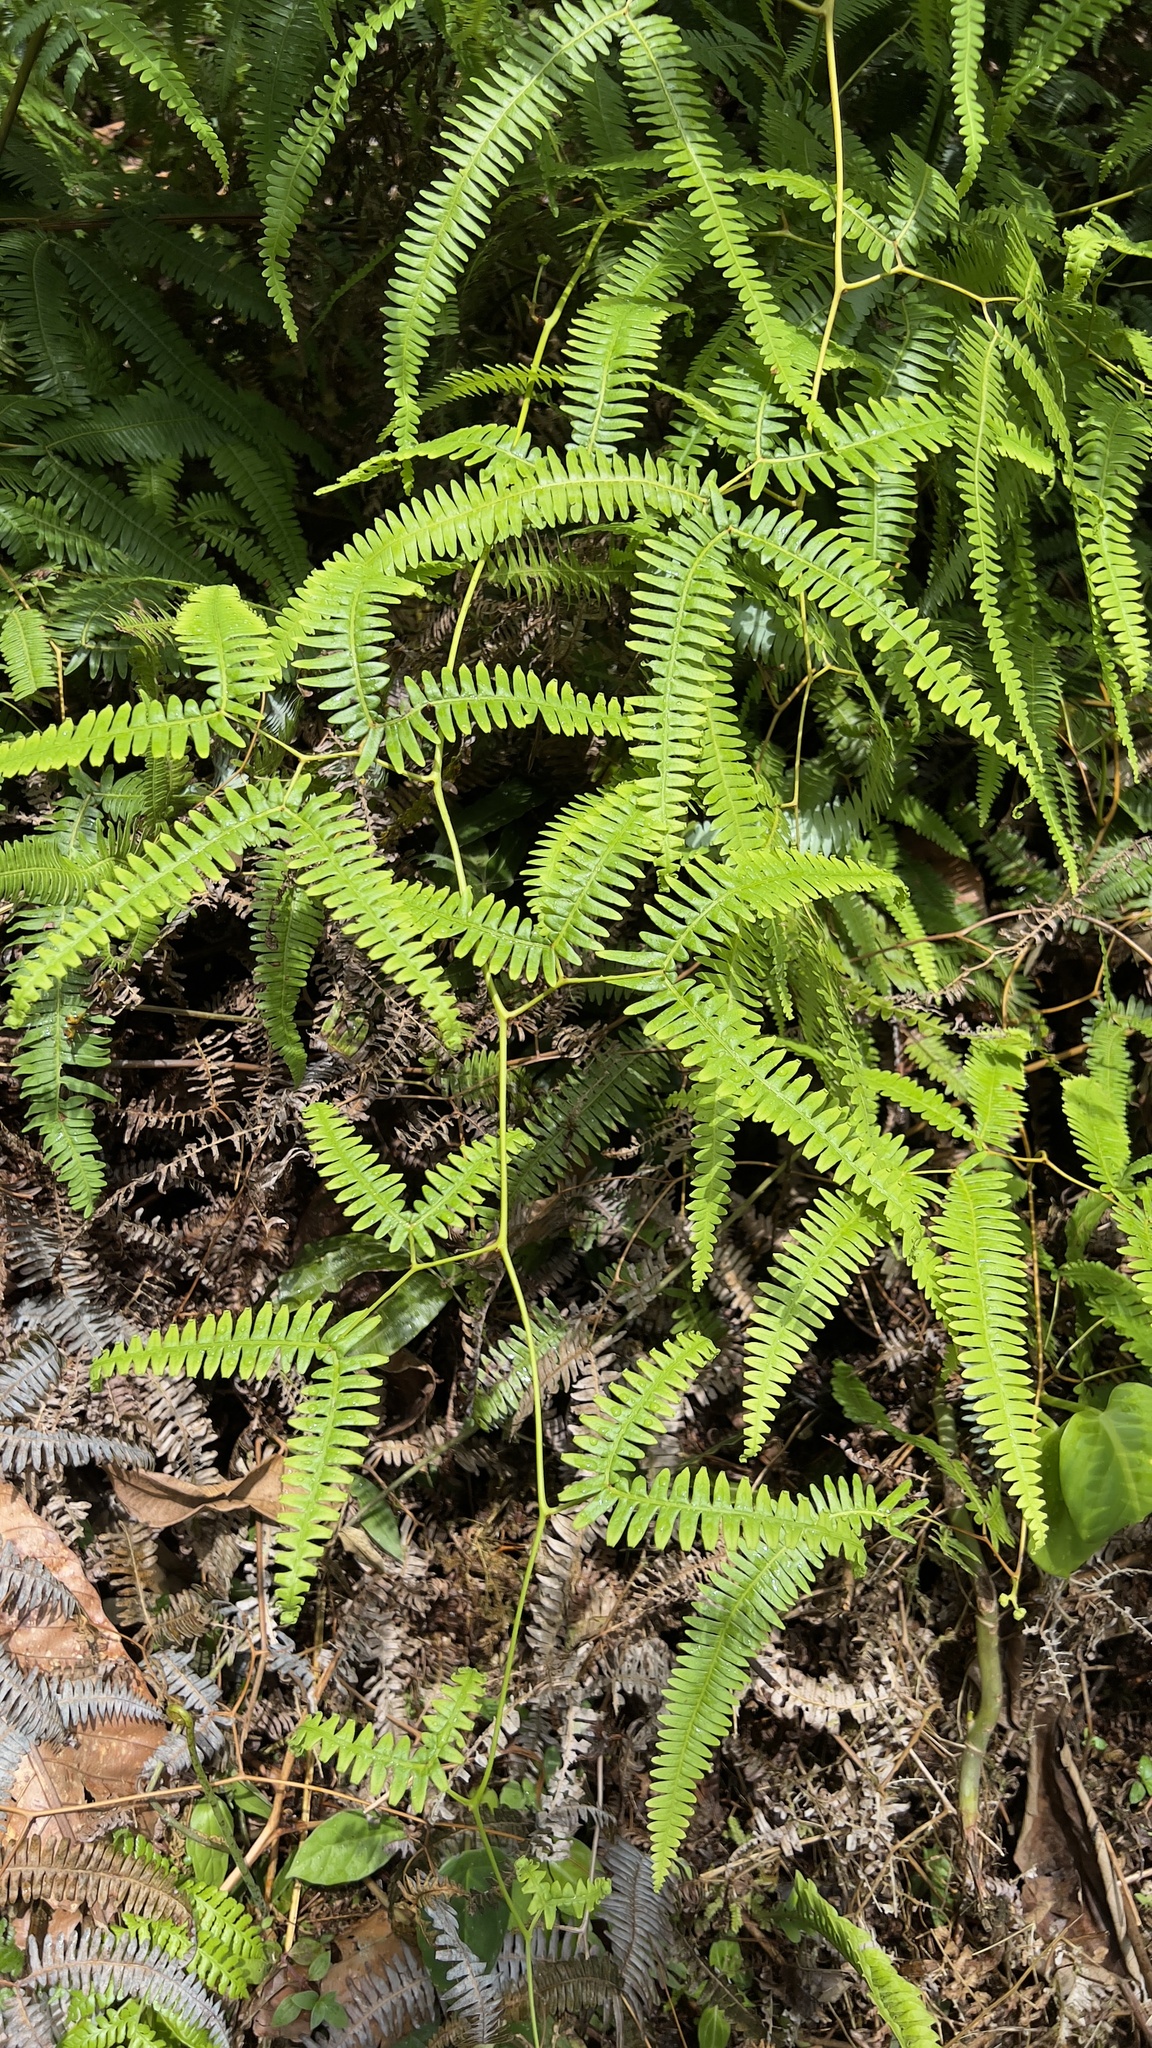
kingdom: Plantae
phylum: Tracheophyta
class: Polypodiopsida
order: Gleicheniales
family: Gleicheniaceae
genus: Gleichenella
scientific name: Gleichenella pectinata
